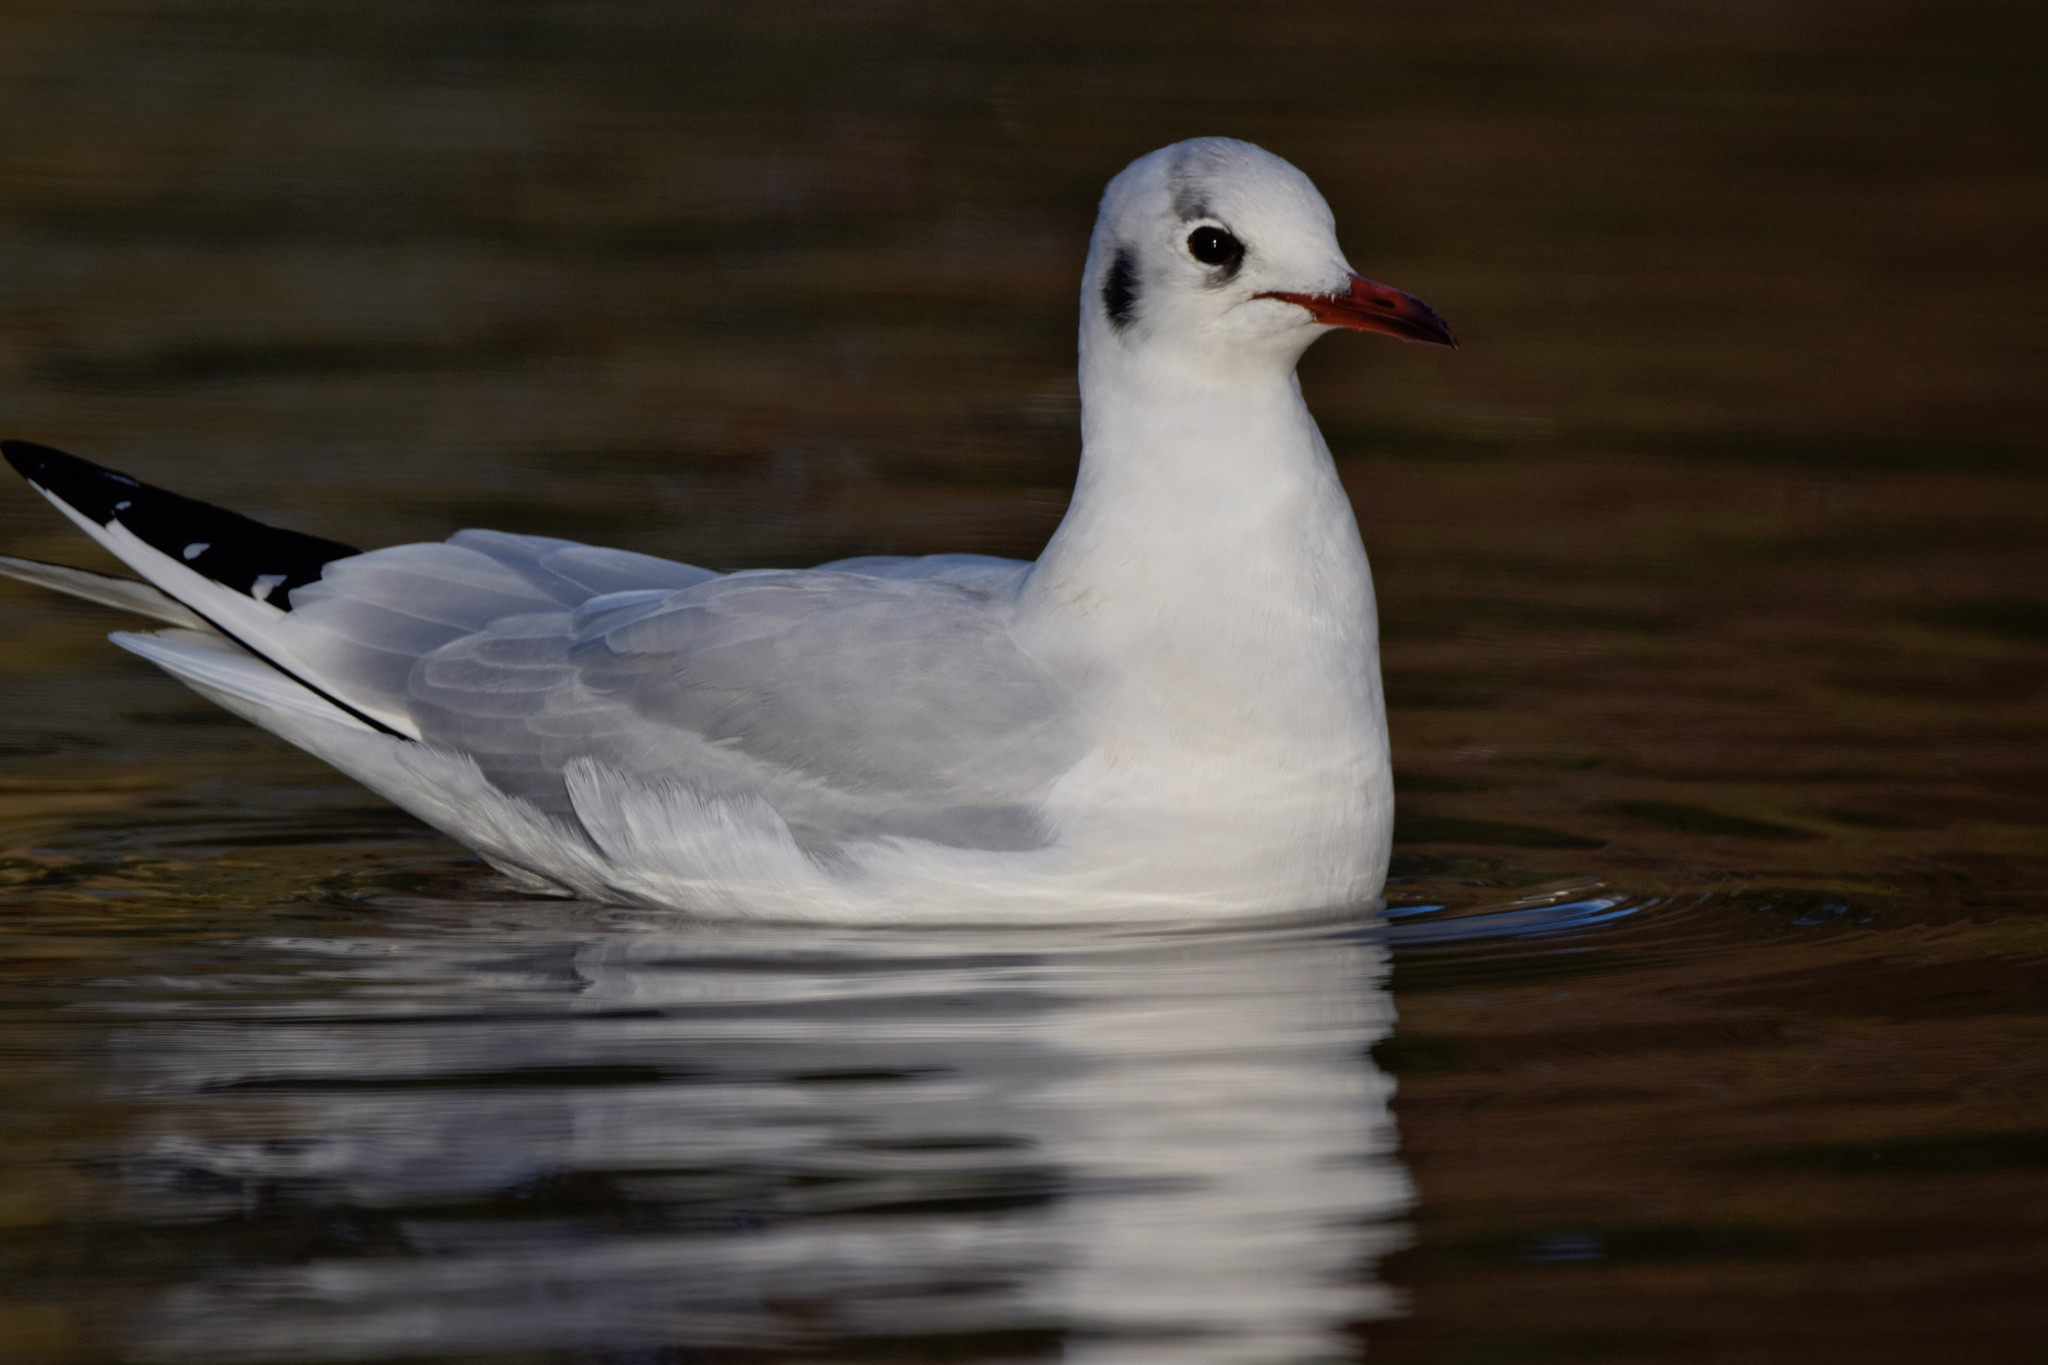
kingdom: Animalia
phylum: Chordata
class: Aves
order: Charadriiformes
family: Laridae
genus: Chroicocephalus
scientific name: Chroicocephalus ridibundus
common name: Black-headed gull
